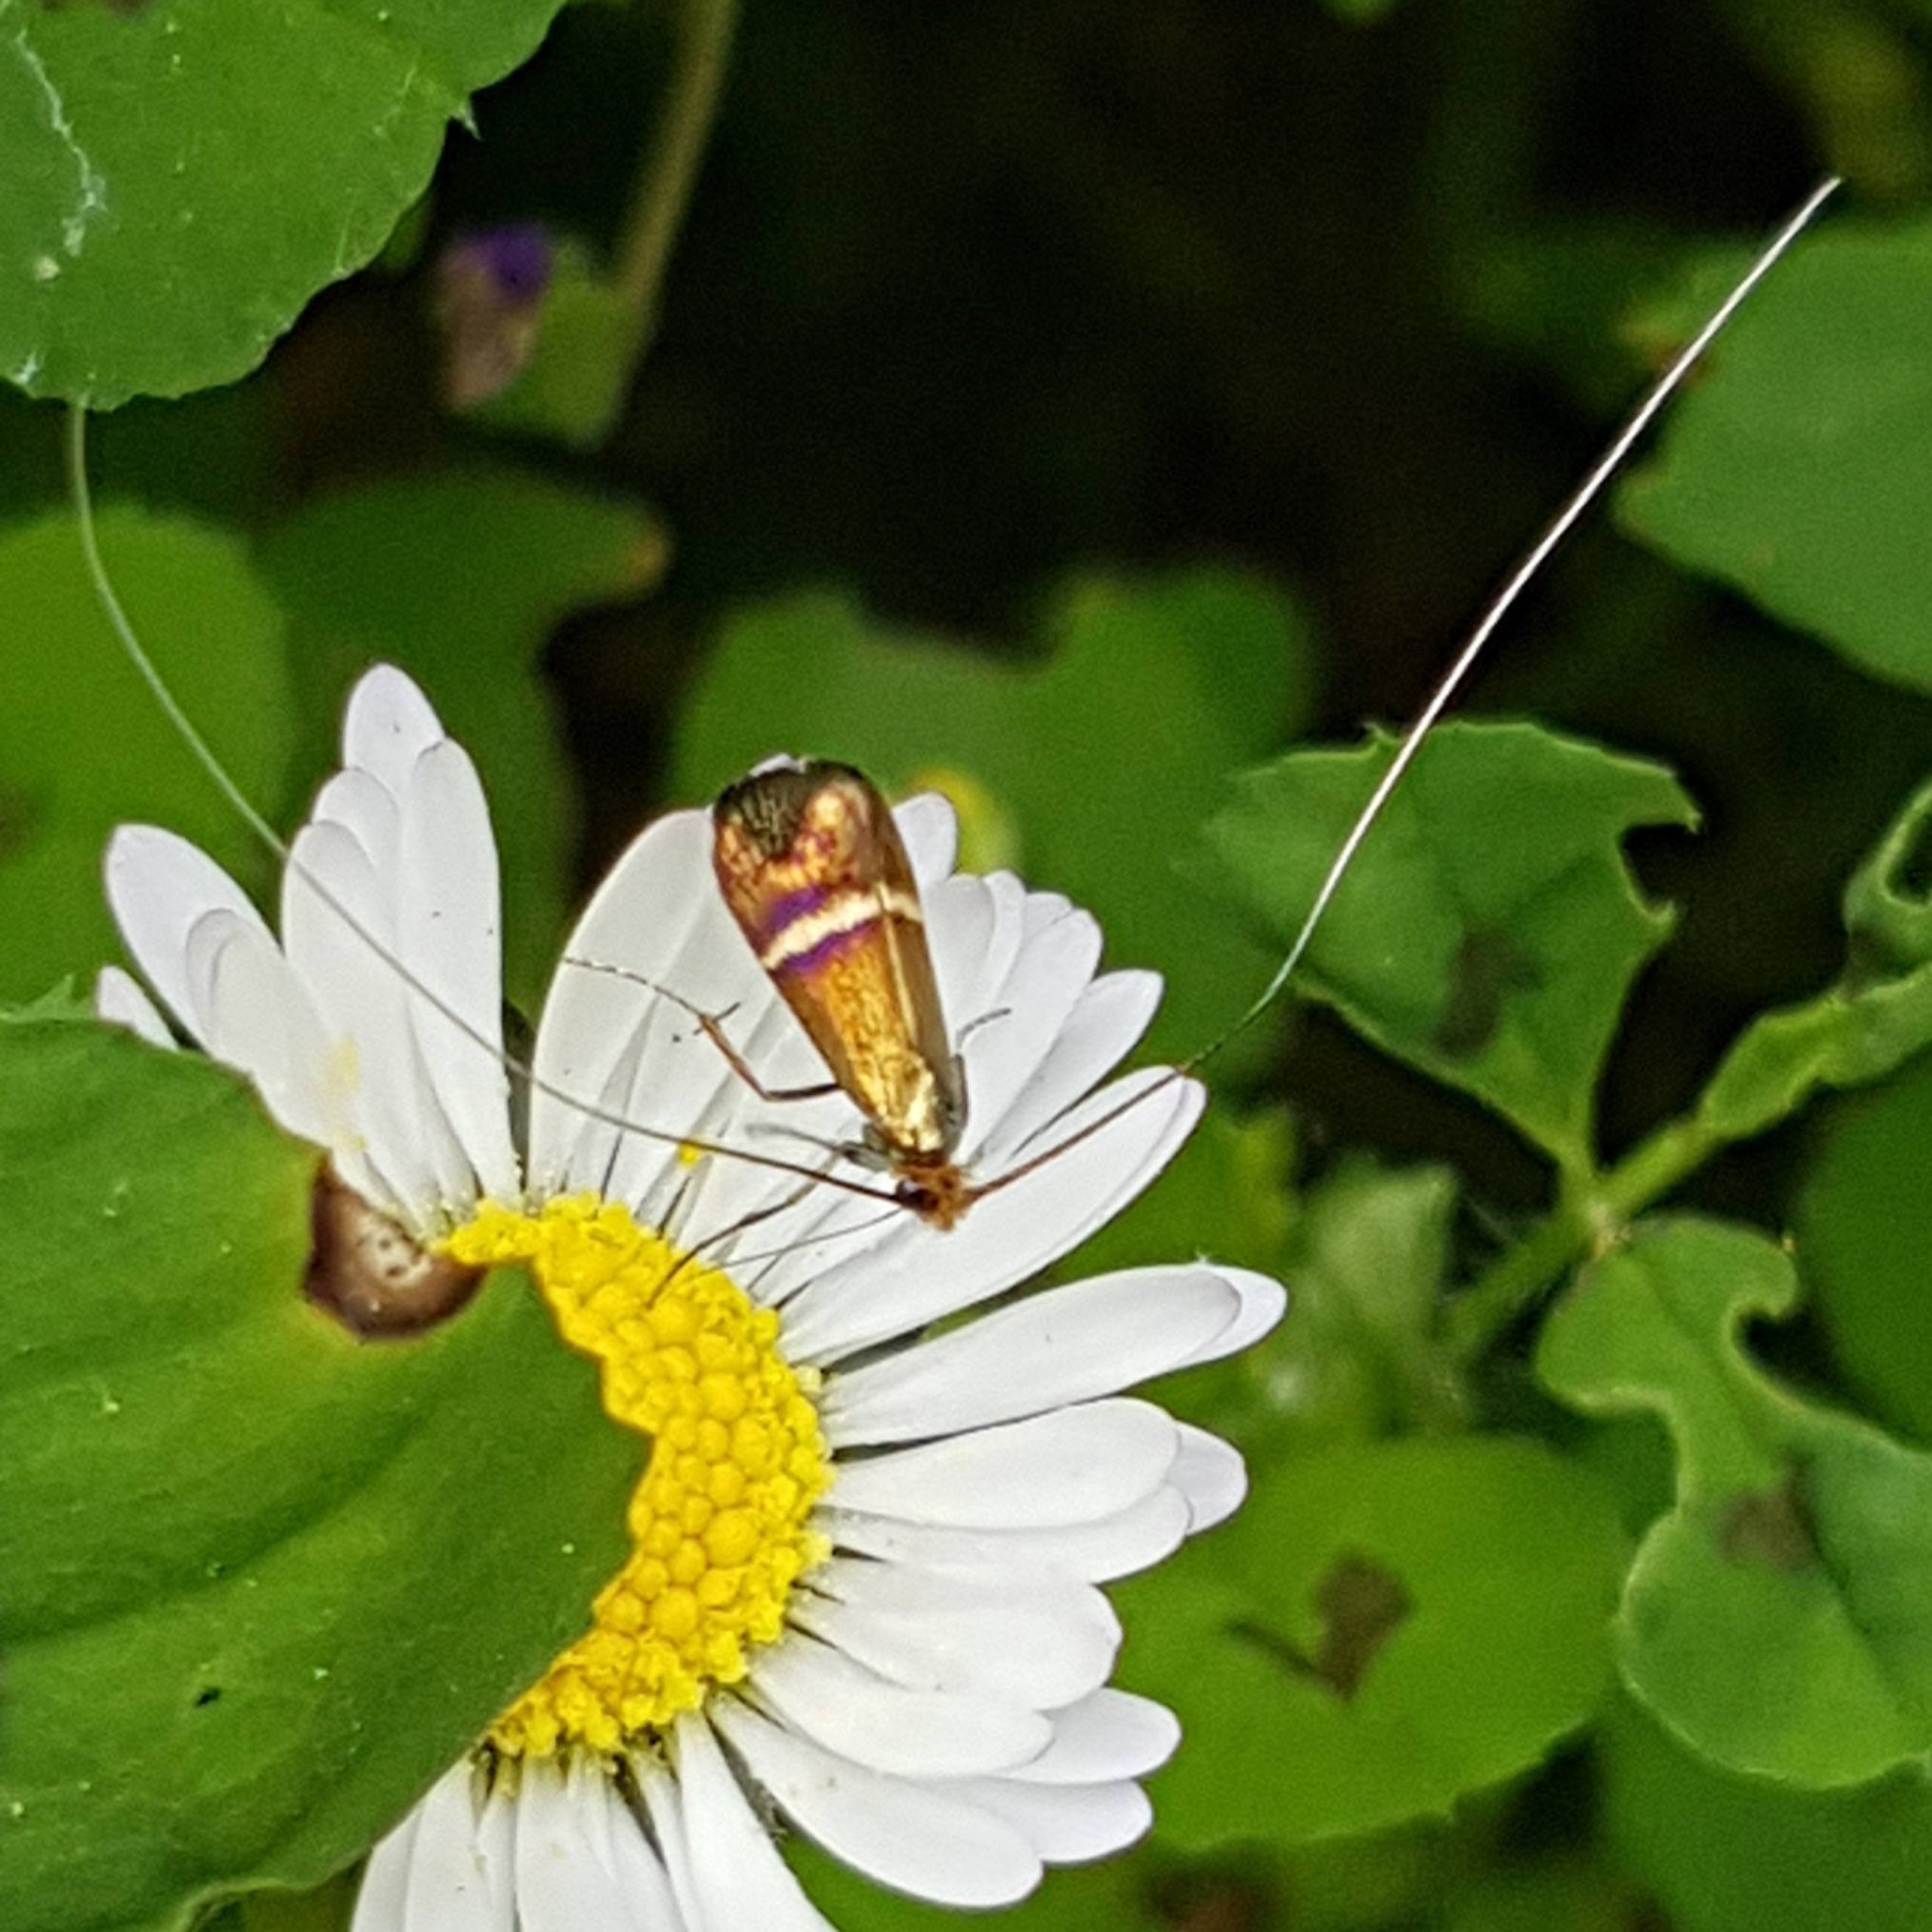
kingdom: Animalia
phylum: Arthropoda
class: Insecta
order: Lepidoptera
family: Adelidae
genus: Adela
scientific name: Adela australis
